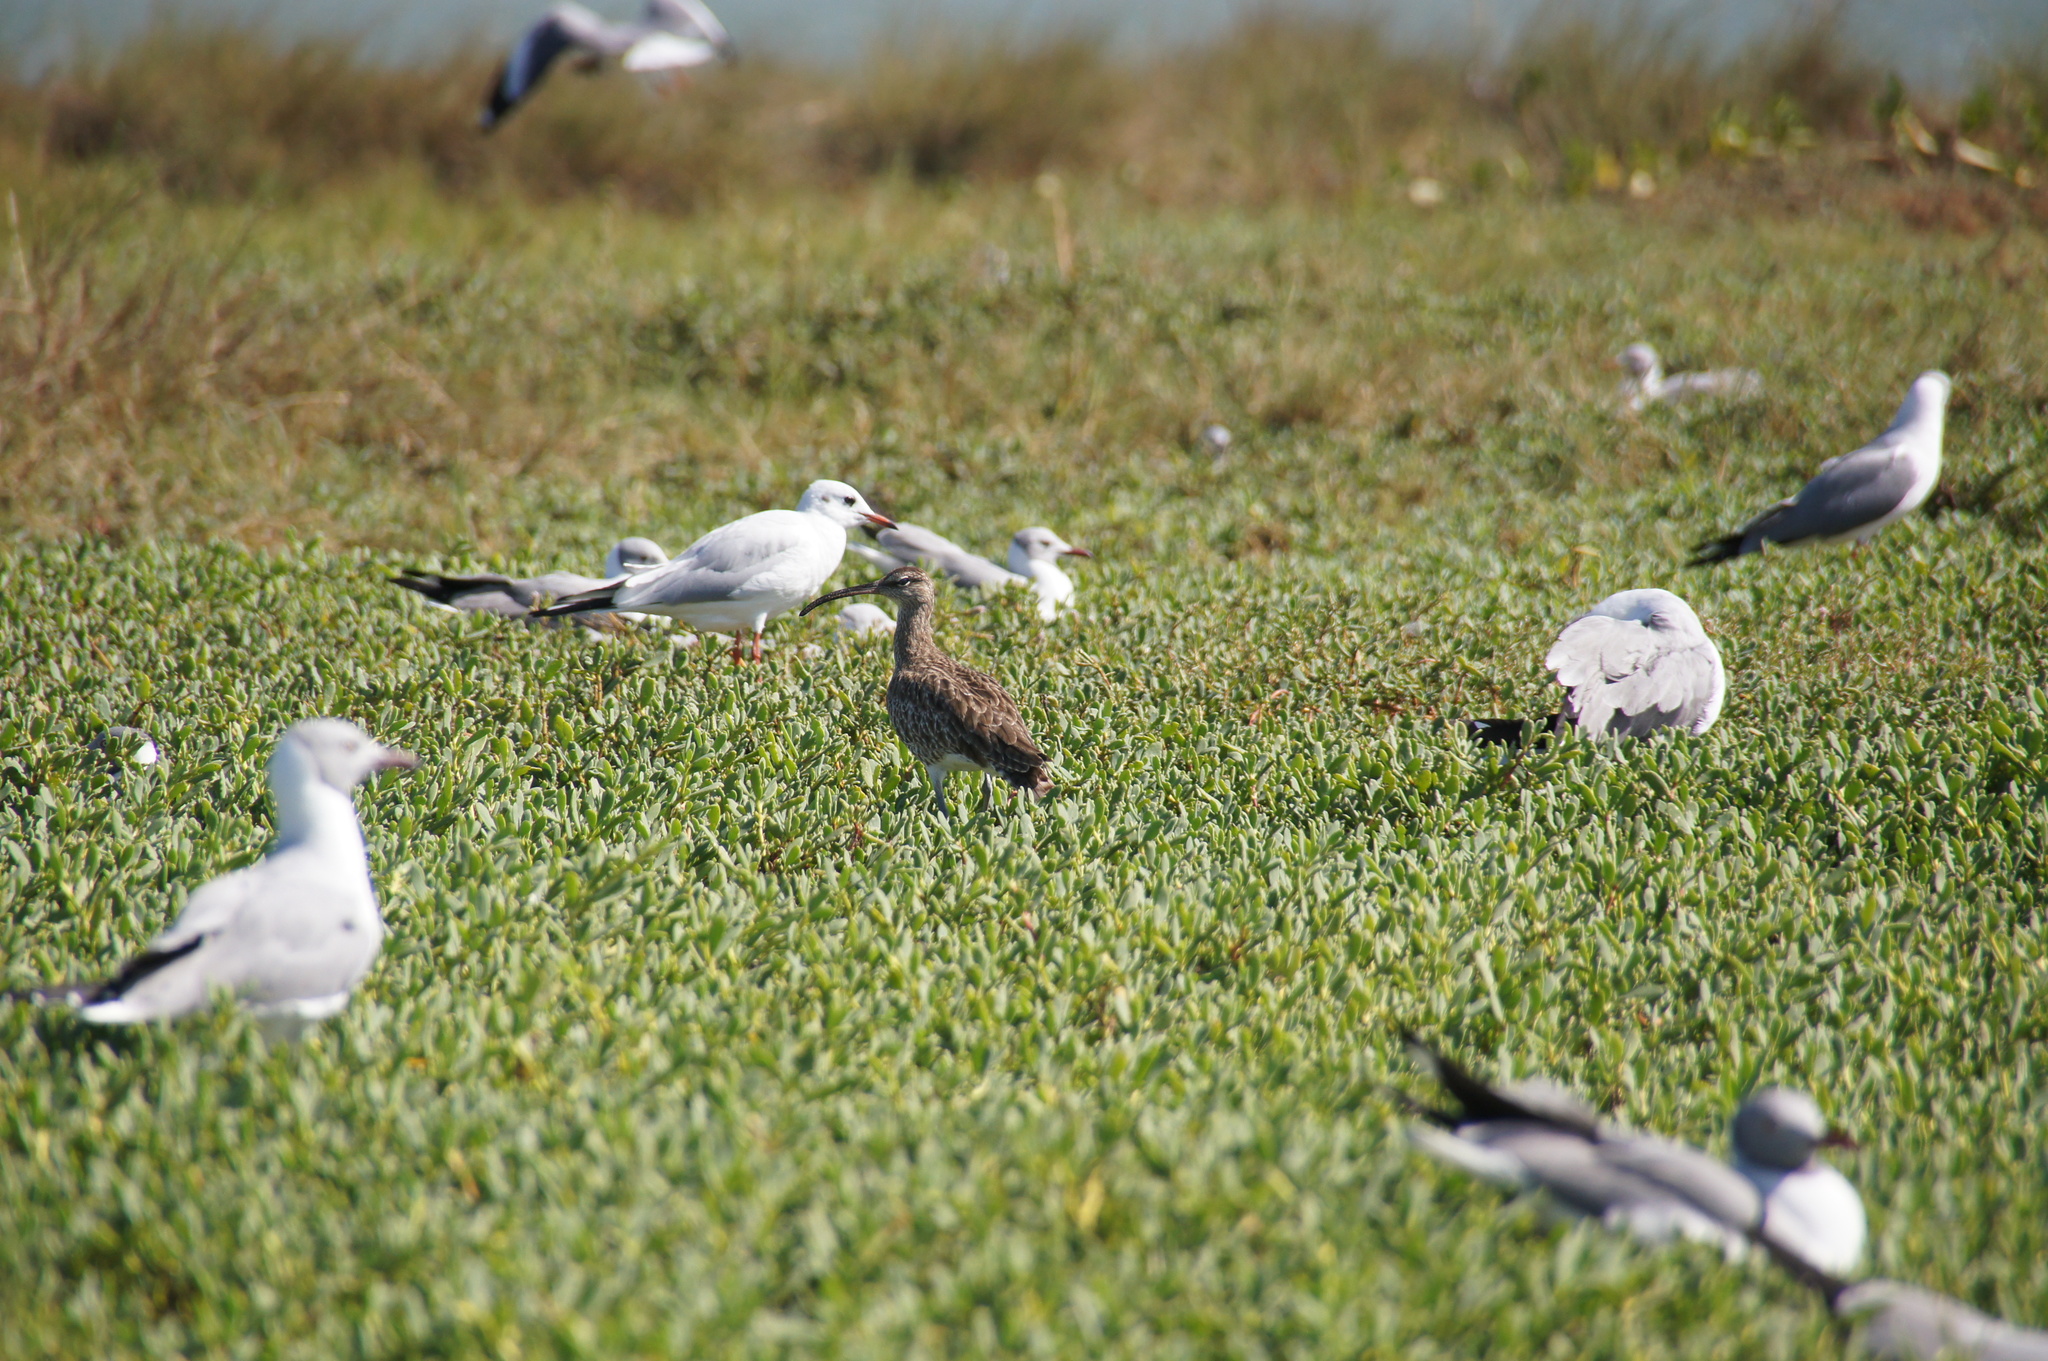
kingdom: Animalia
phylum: Chordata
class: Aves
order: Charadriiformes
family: Scolopacidae
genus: Numenius
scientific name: Numenius phaeopus
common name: Whimbrel
